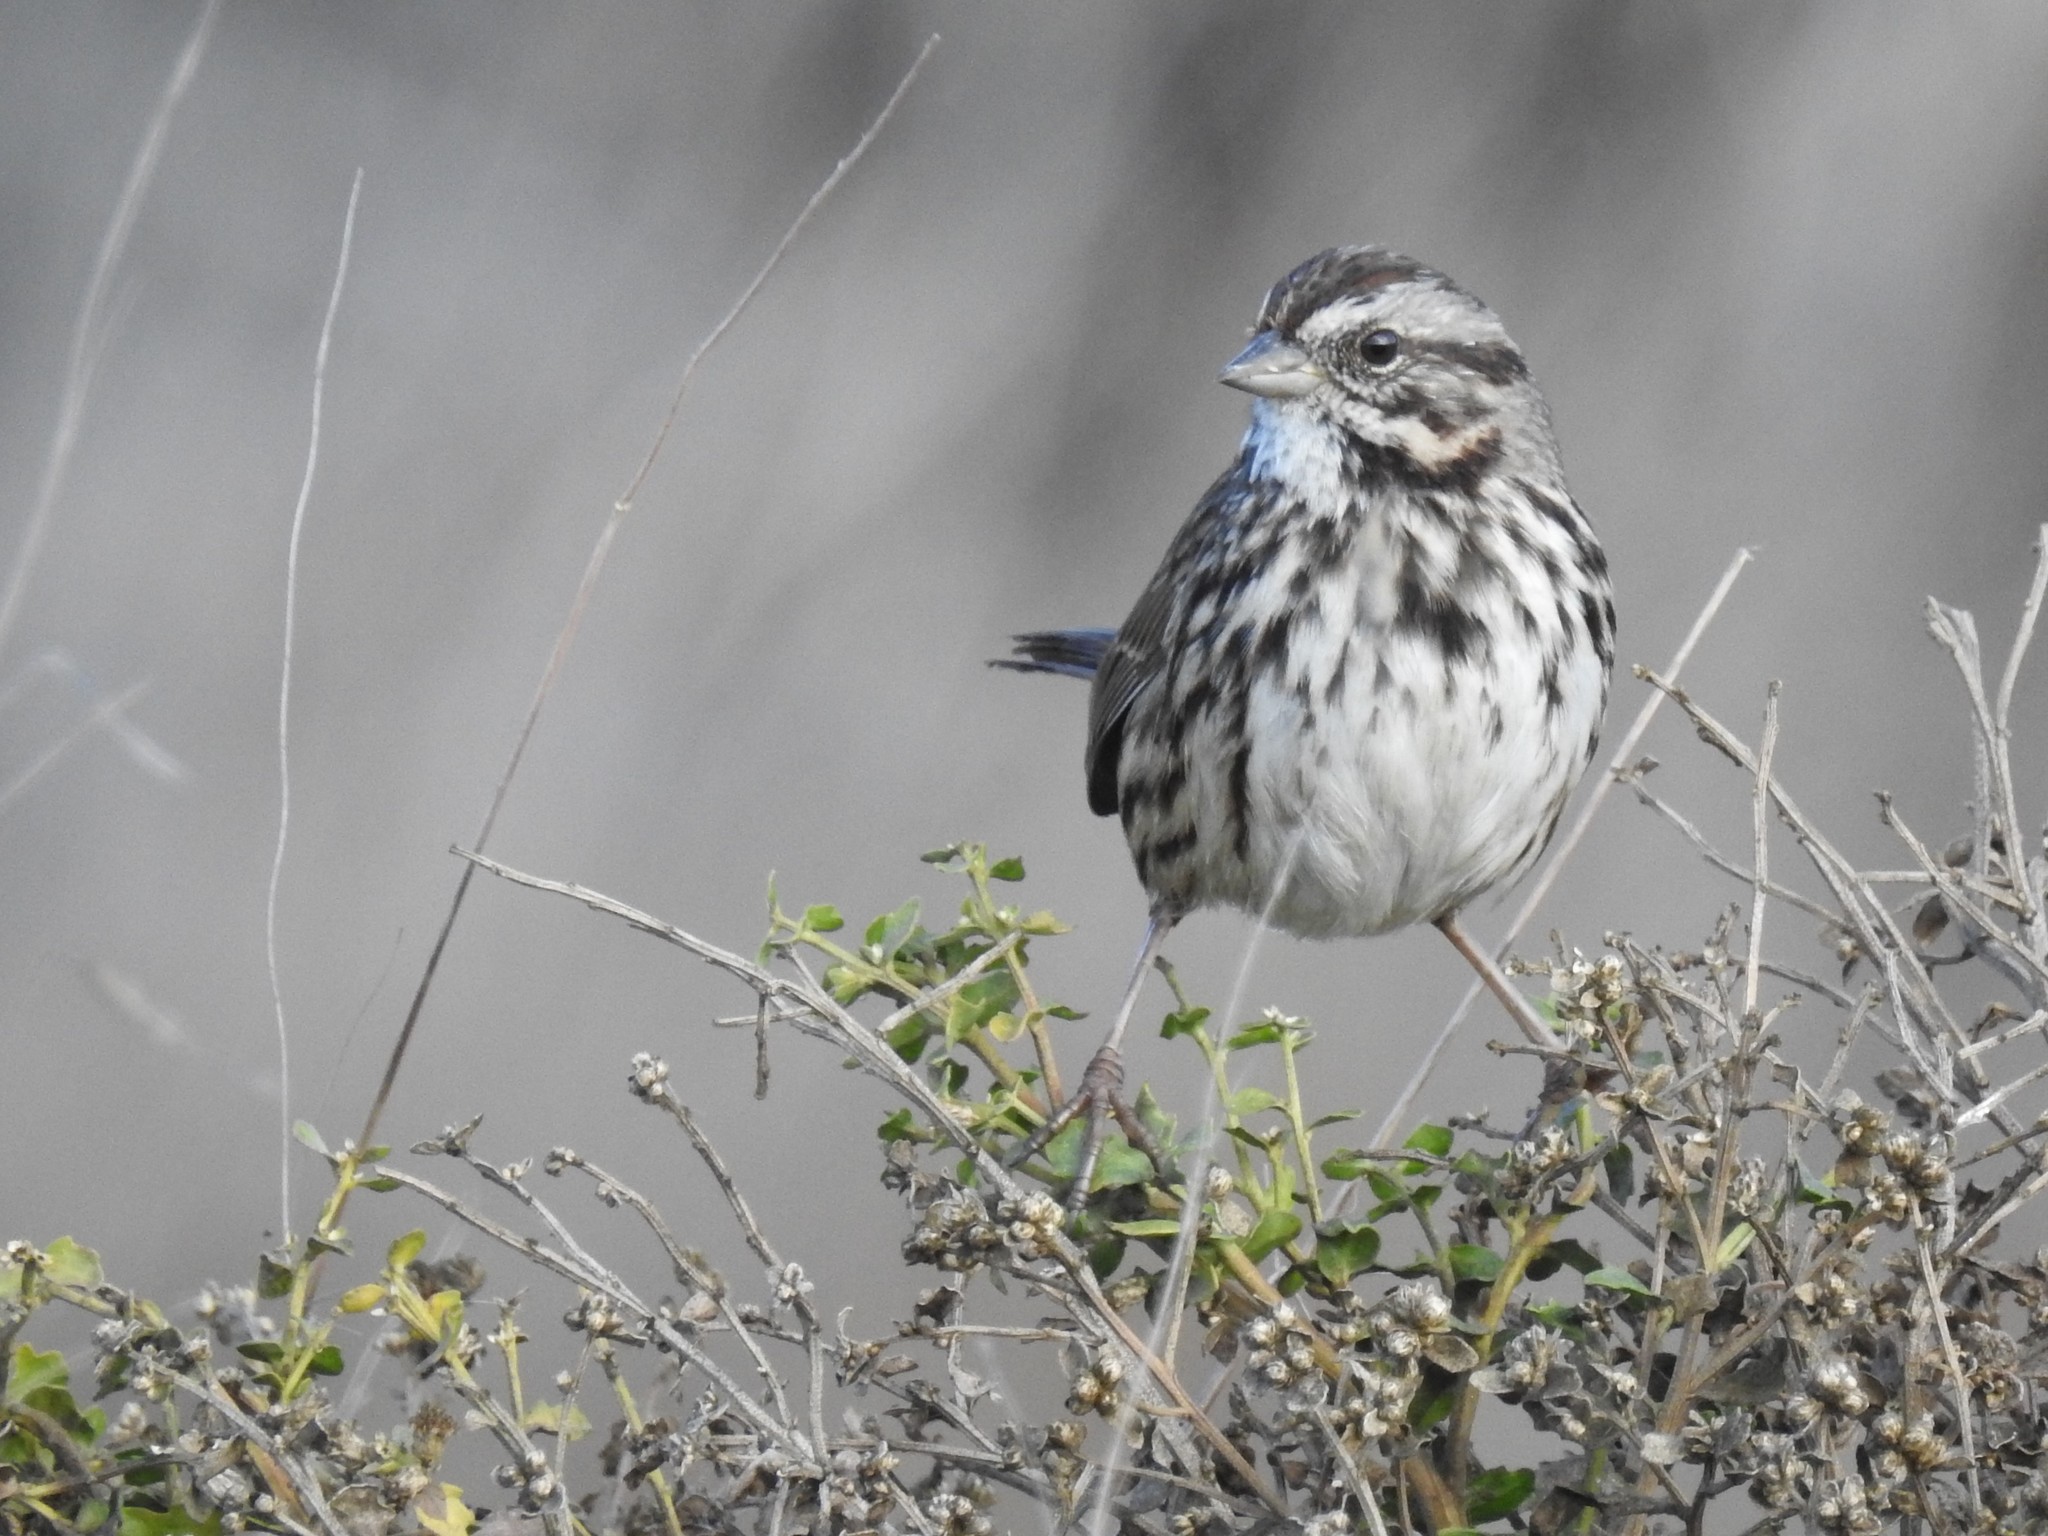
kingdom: Animalia
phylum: Chordata
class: Aves
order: Passeriformes
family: Passerellidae
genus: Melospiza
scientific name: Melospiza melodia
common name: Song sparrow
